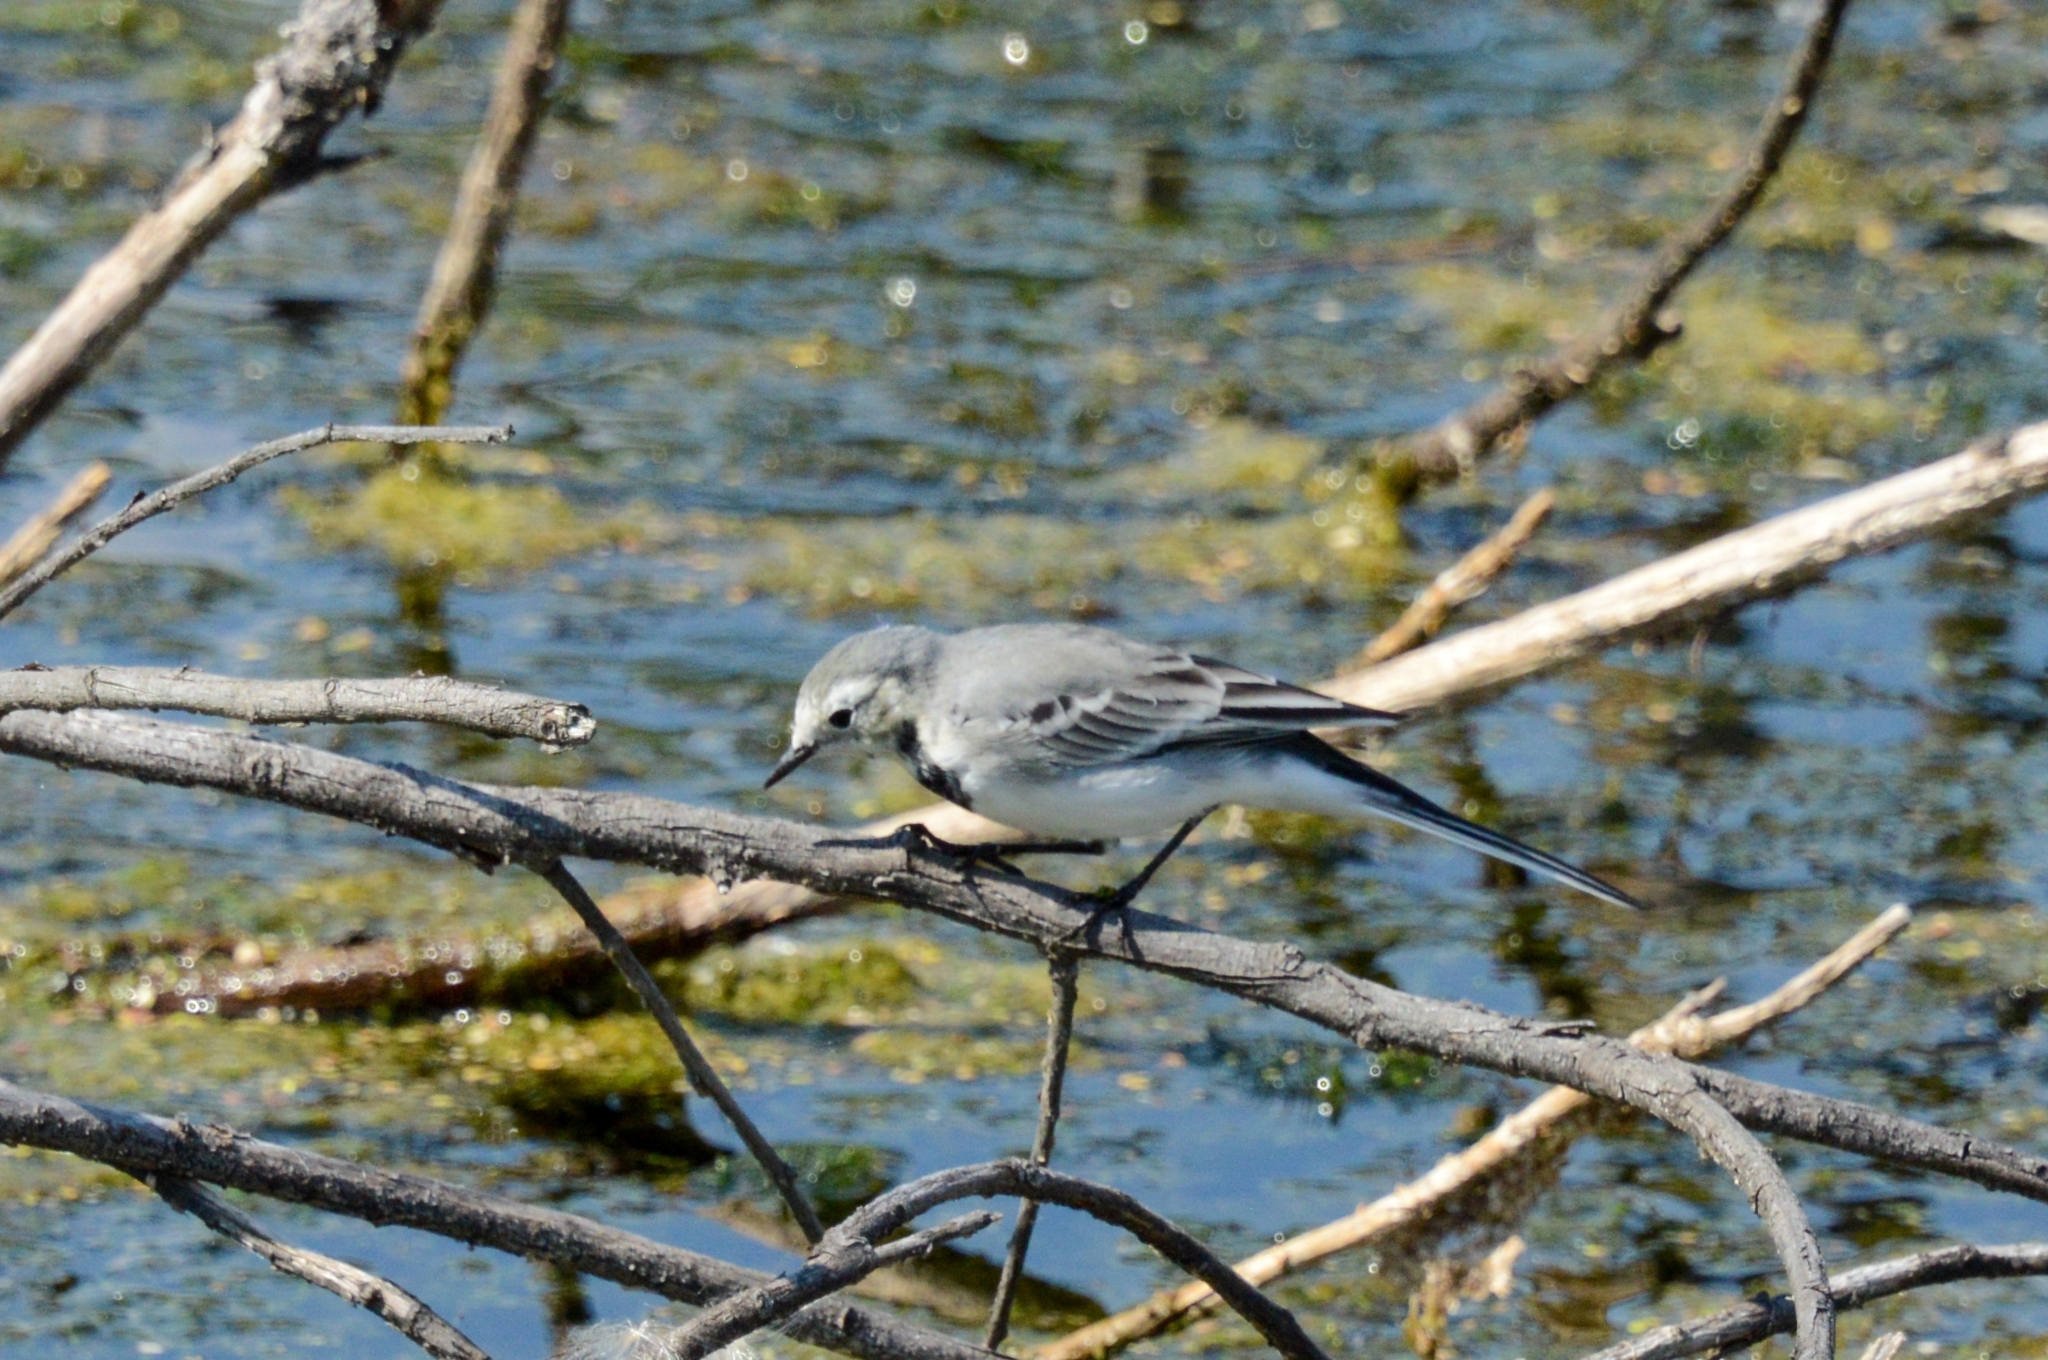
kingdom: Animalia
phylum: Chordata
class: Aves
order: Passeriformes
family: Motacillidae
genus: Motacilla
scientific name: Motacilla alba
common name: White wagtail
